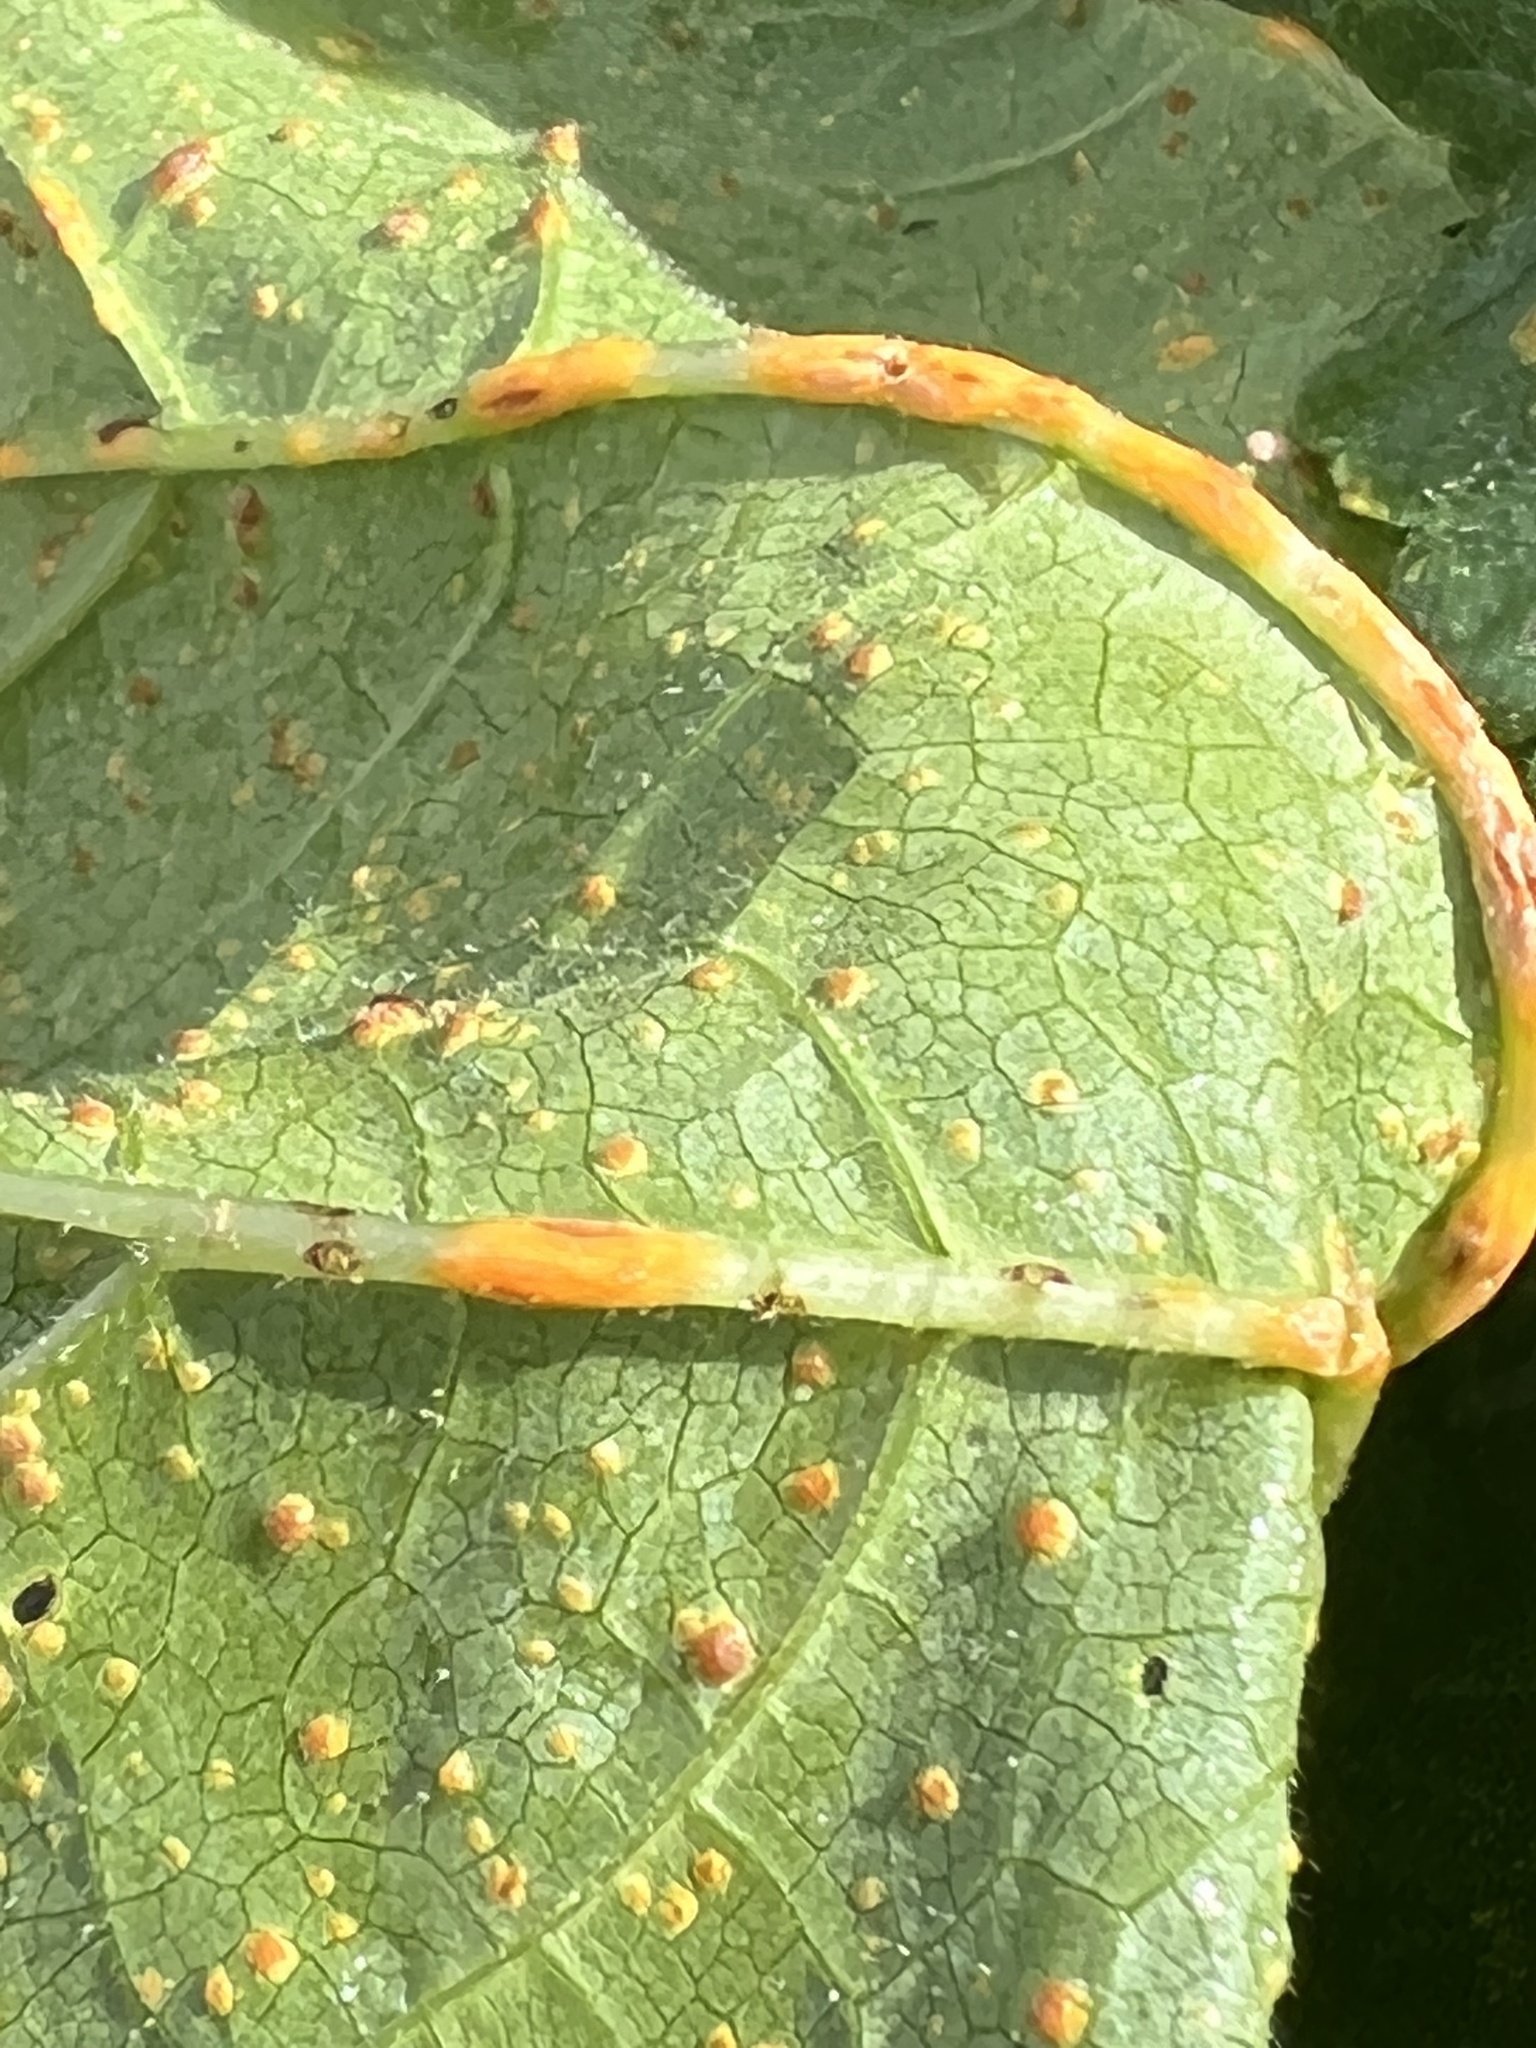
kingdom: Fungi
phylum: Basidiomycota
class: Pucciniomycetes
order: Pucciniales
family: Pucciniaceae
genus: Puccinia
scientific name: Puccinia malvacearum
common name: Hollyhock rust
